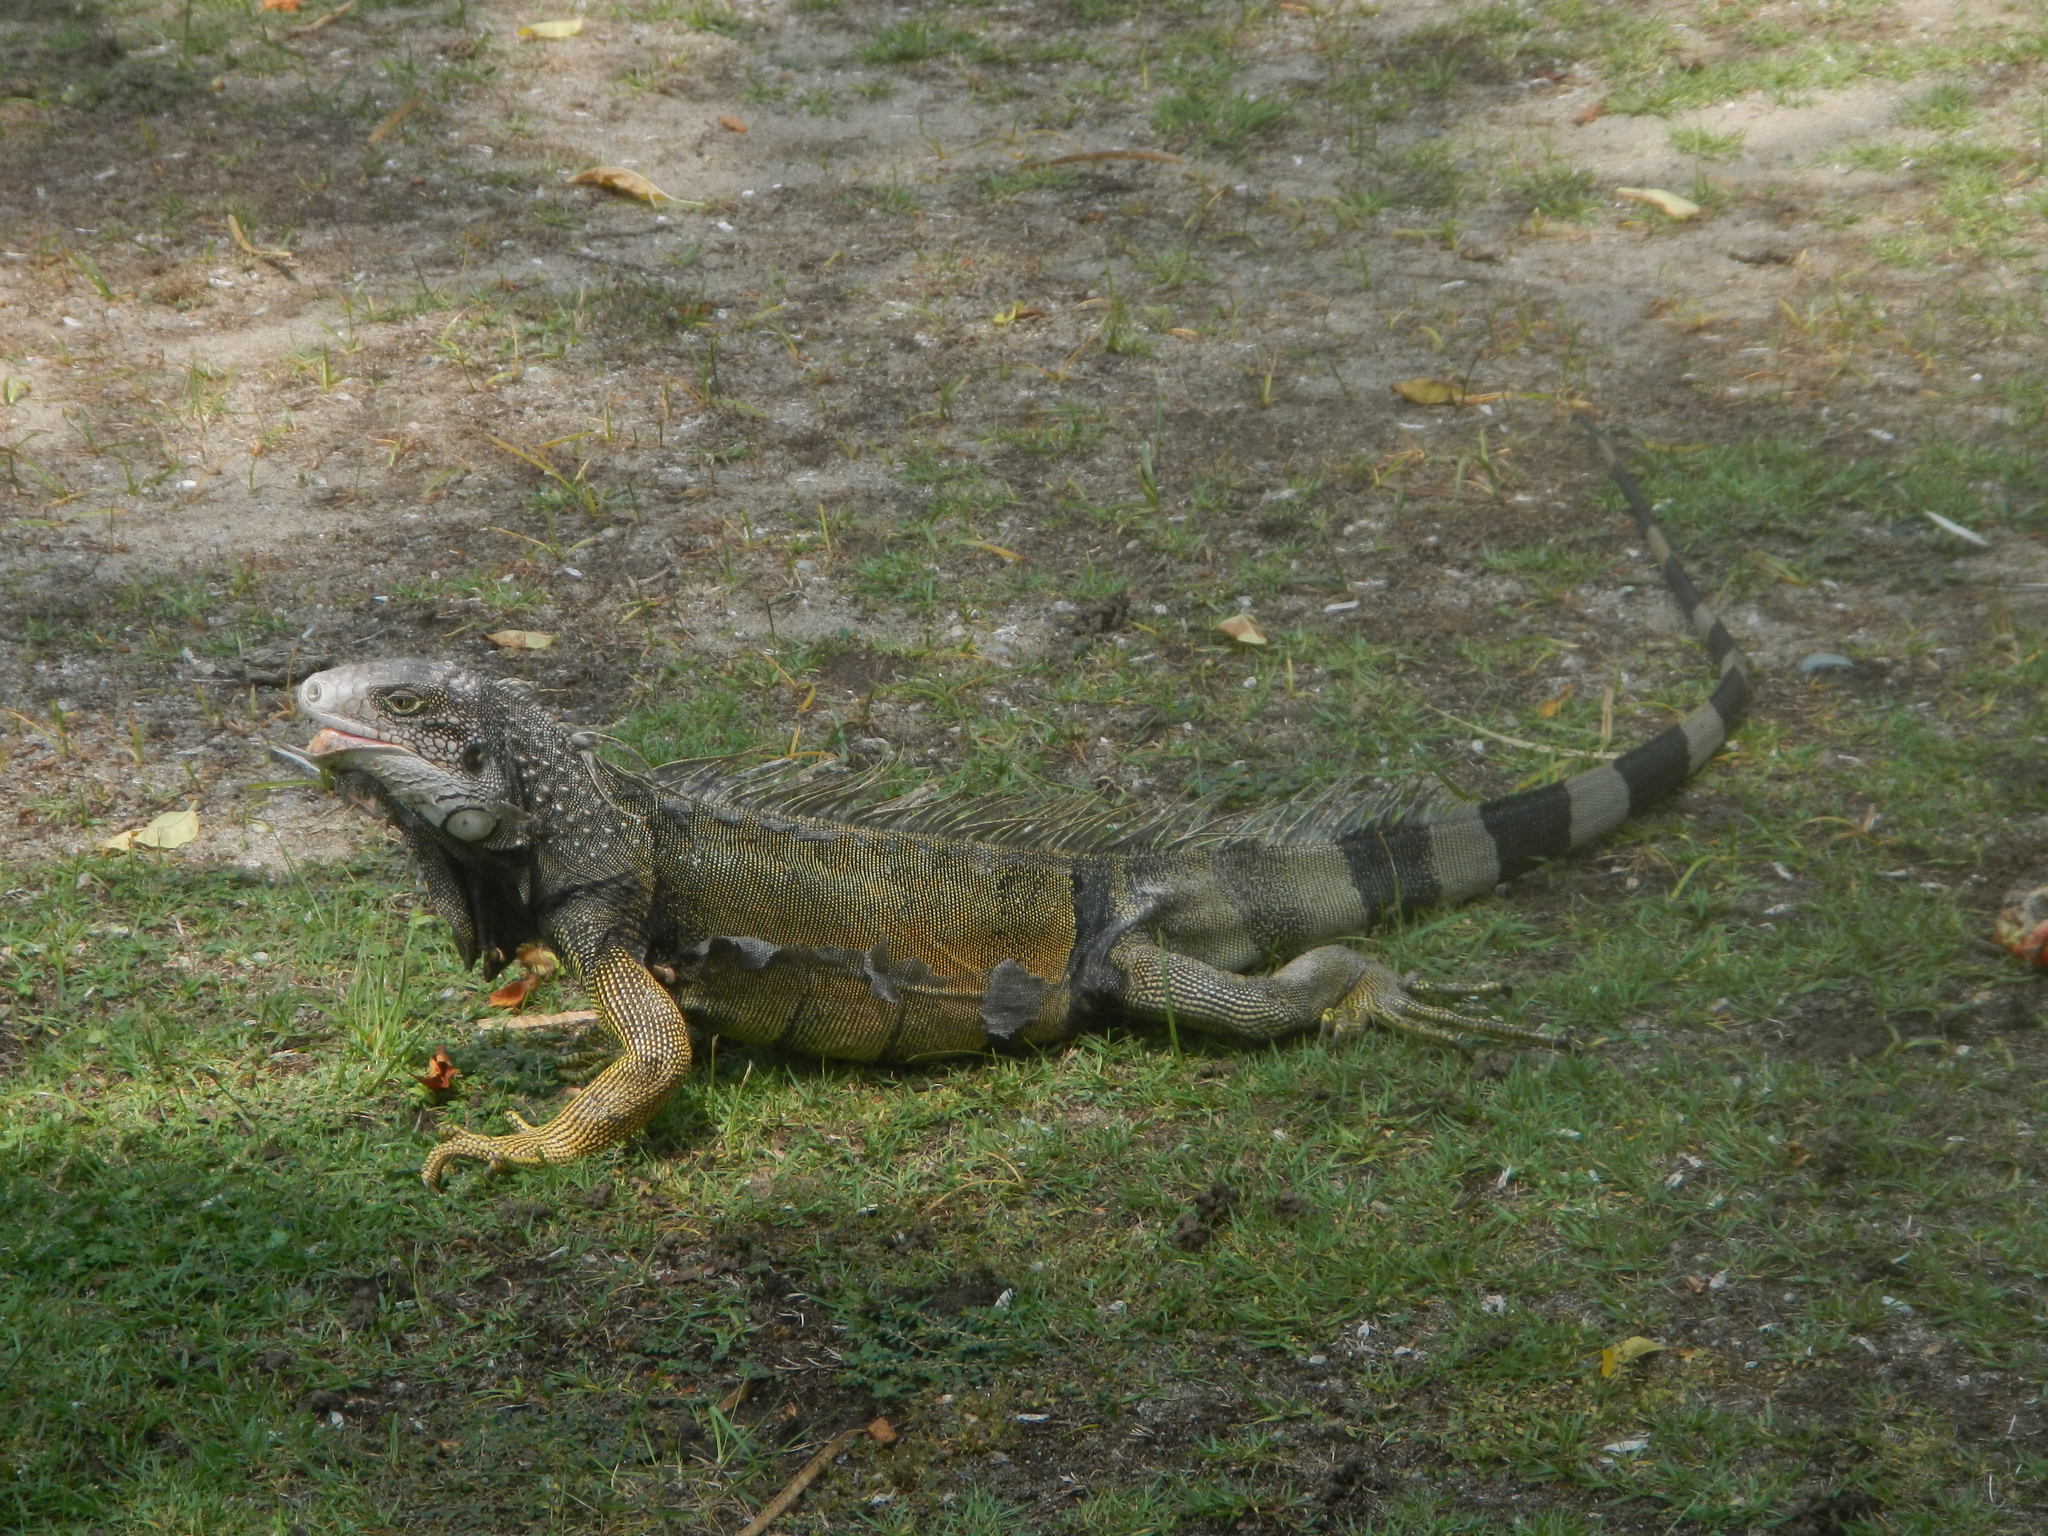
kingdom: Animalia
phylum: Chordata
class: Squamata
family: Iguanidae
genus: Iguana
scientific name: Iguana iguana
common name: Green iguana
